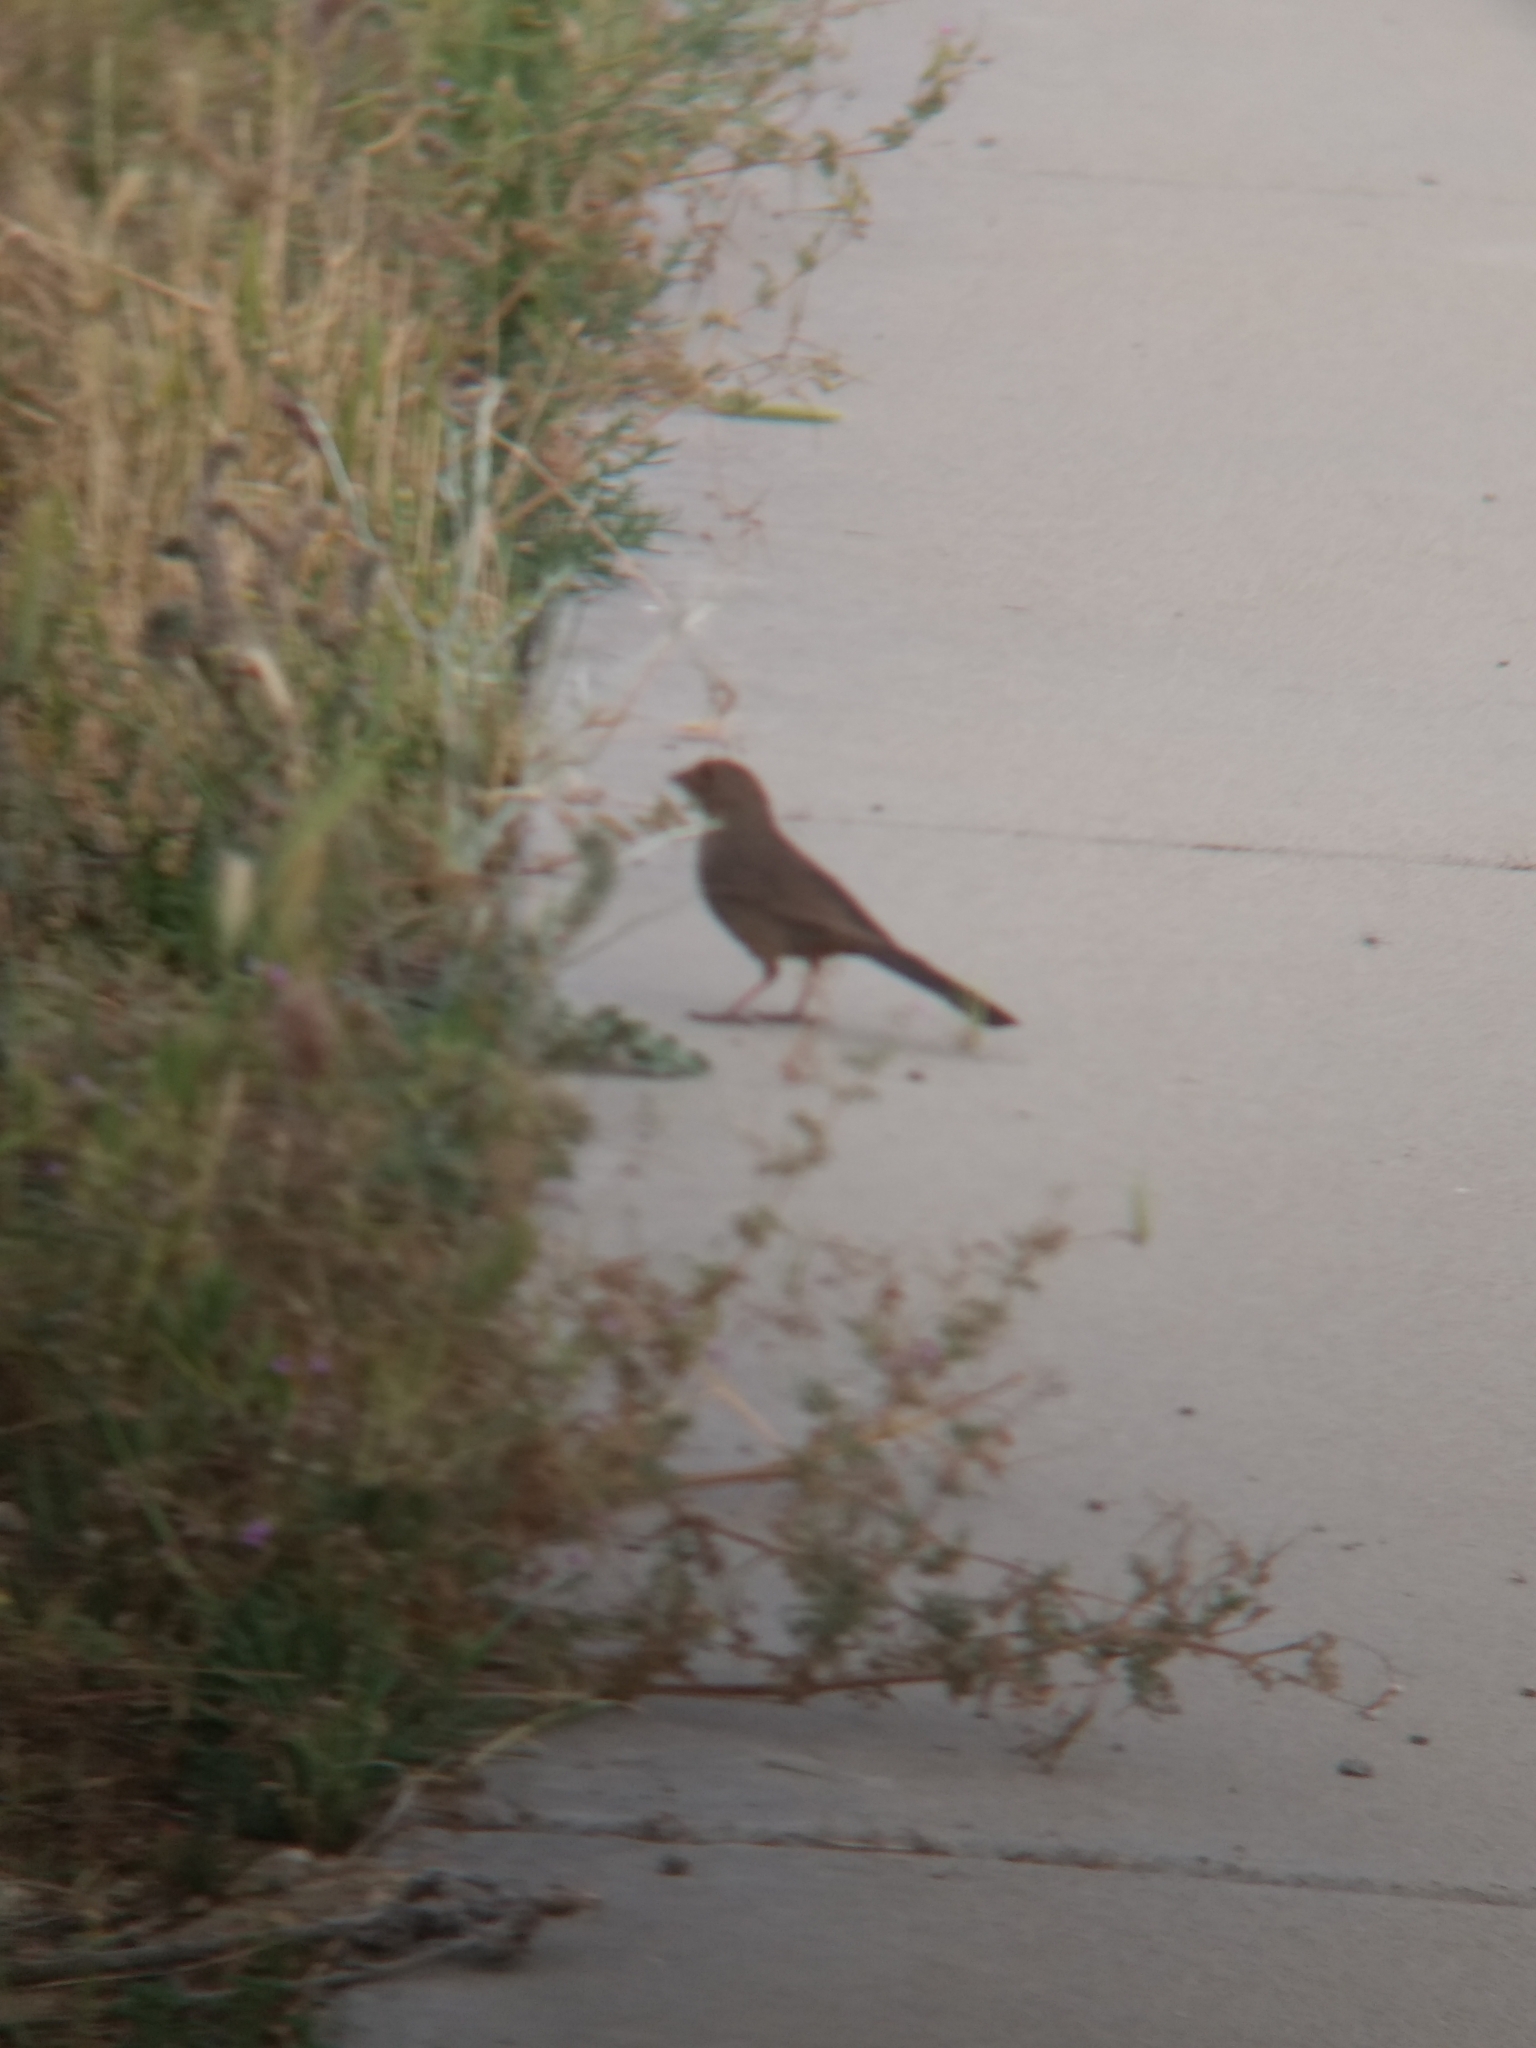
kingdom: Animalia
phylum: Chordata
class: Aves
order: Passeriformes
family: Passerellidae
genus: Melozone
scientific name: Melozone crissalis
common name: California towhee
